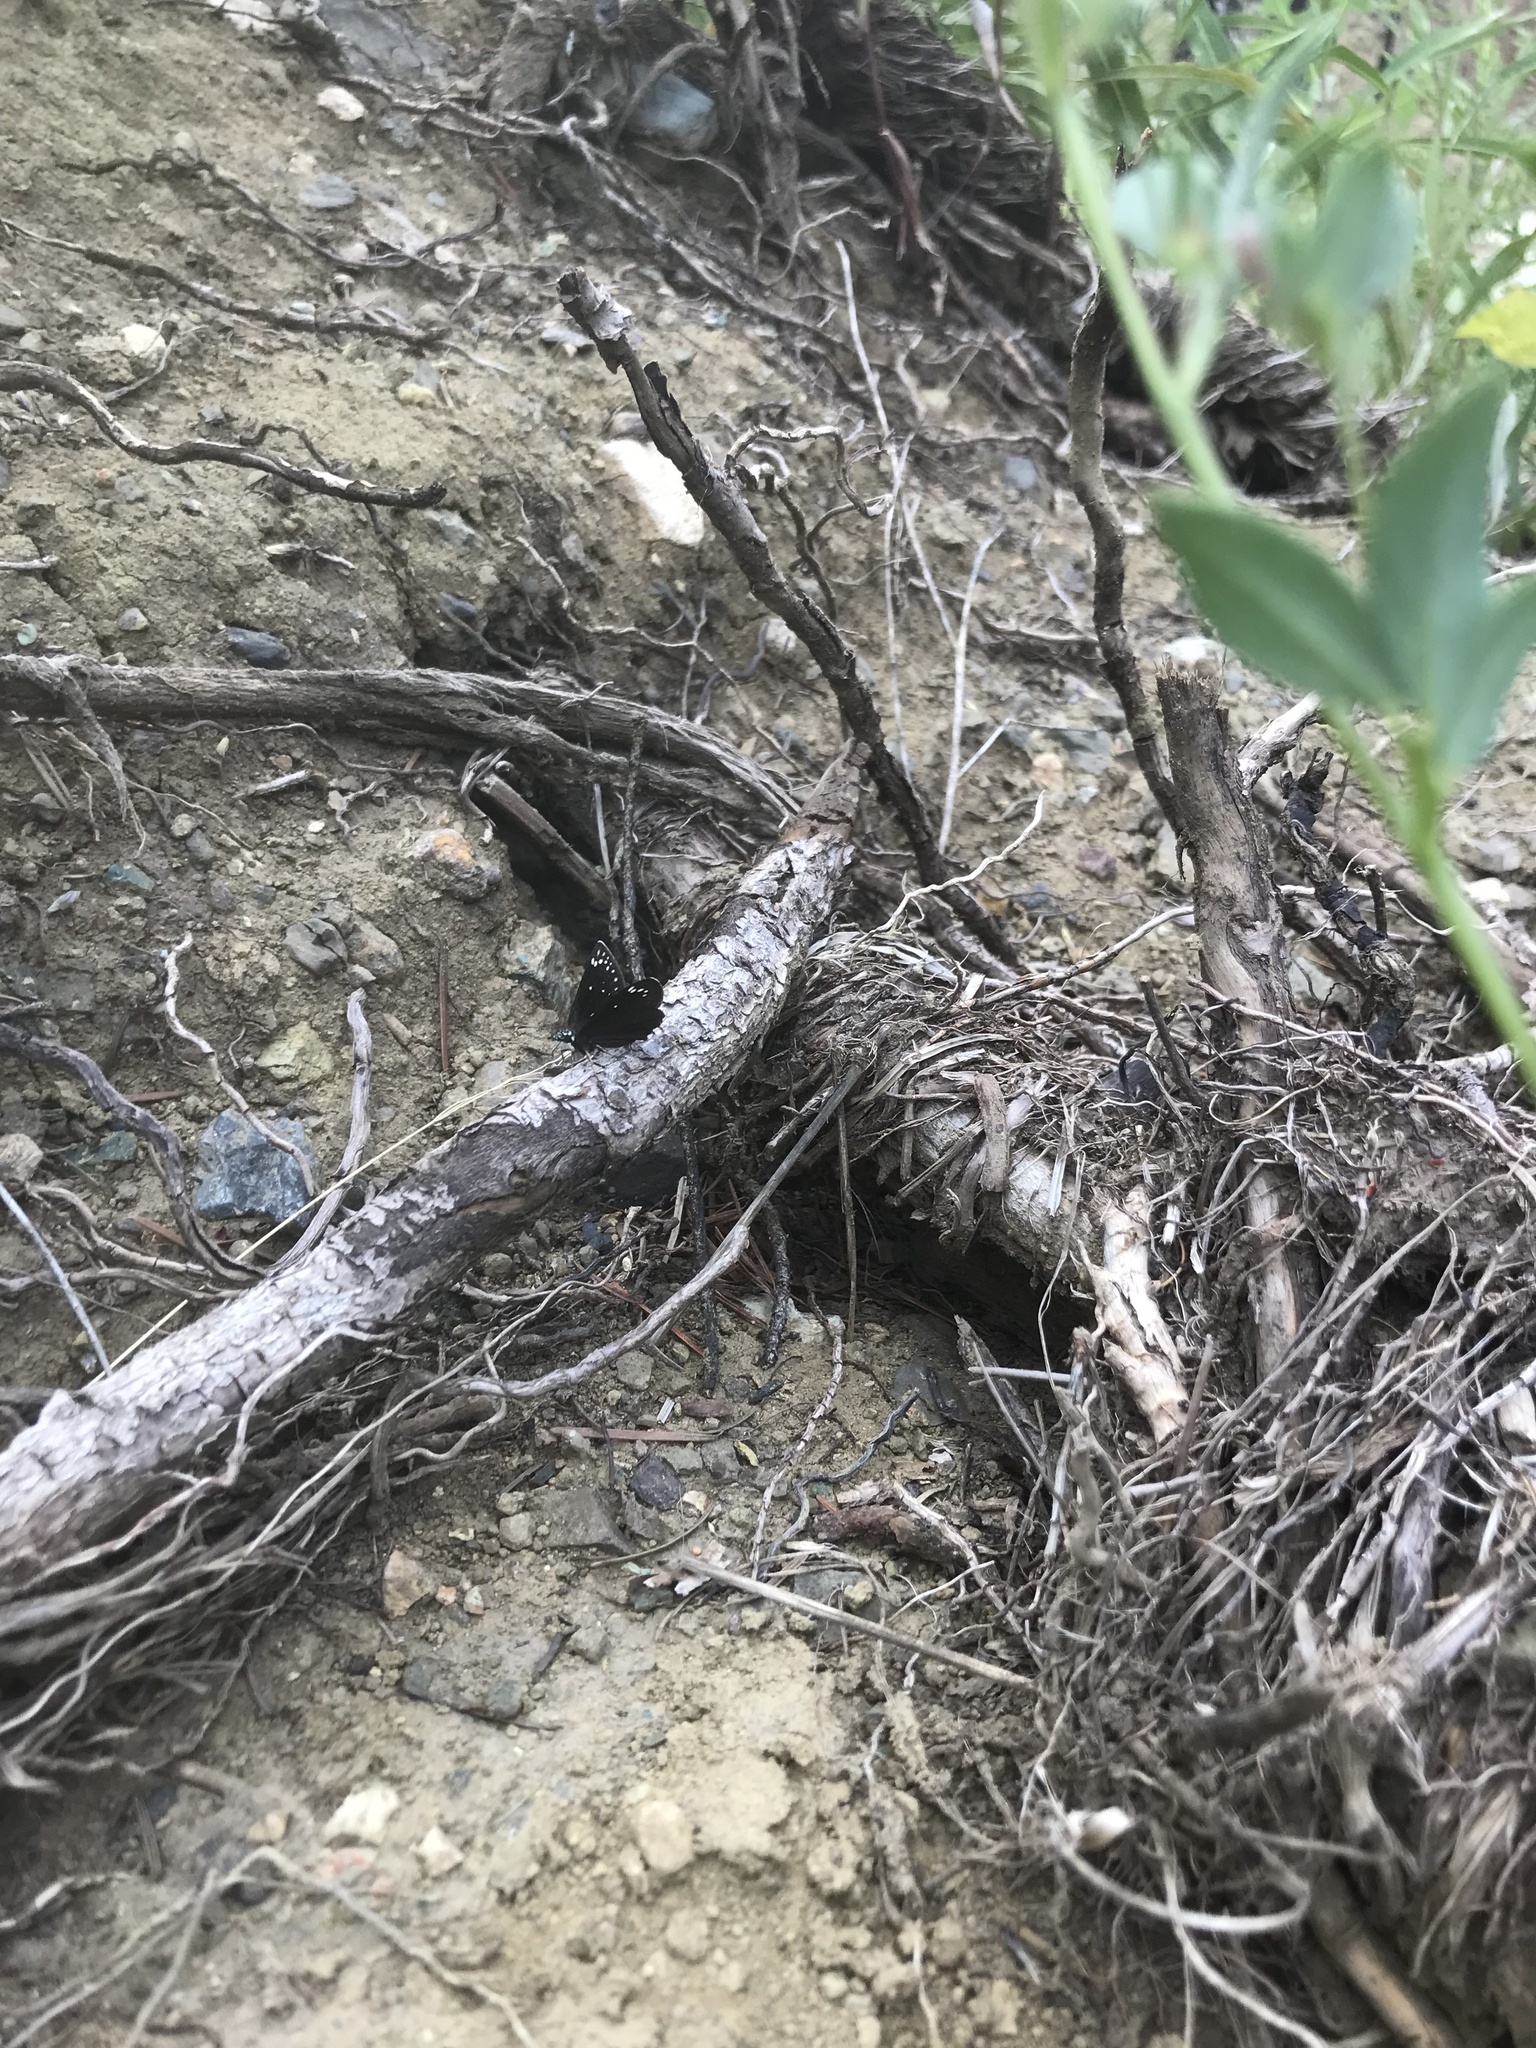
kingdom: Animalia
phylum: Arthropoda
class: Insecta
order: Lepidoptera
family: Hesperiidae
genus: Pholisora
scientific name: Pholisora catullus
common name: Common sootywing
